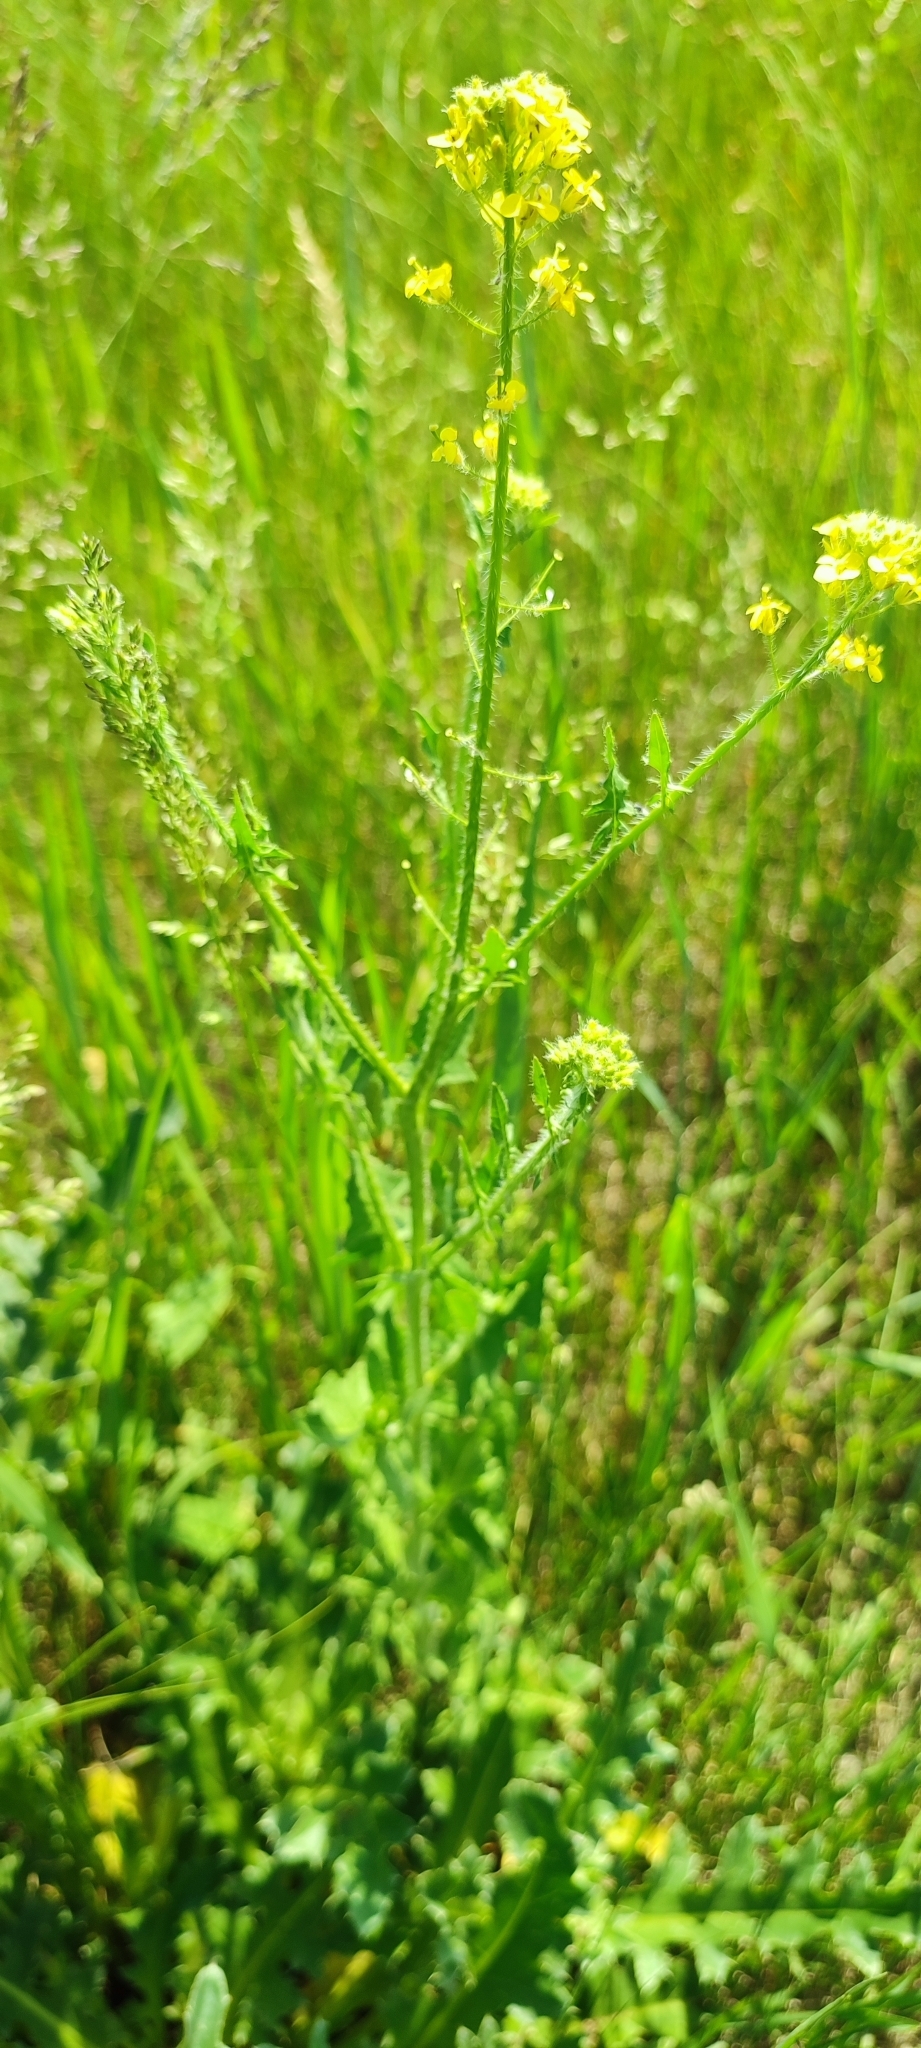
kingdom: Plantae
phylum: Tracheophyta
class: Magnoliopsida
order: Brassicales
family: Brassicaceae
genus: Sisymbrium
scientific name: Sisymbrium loeselii
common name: False london-rocket
